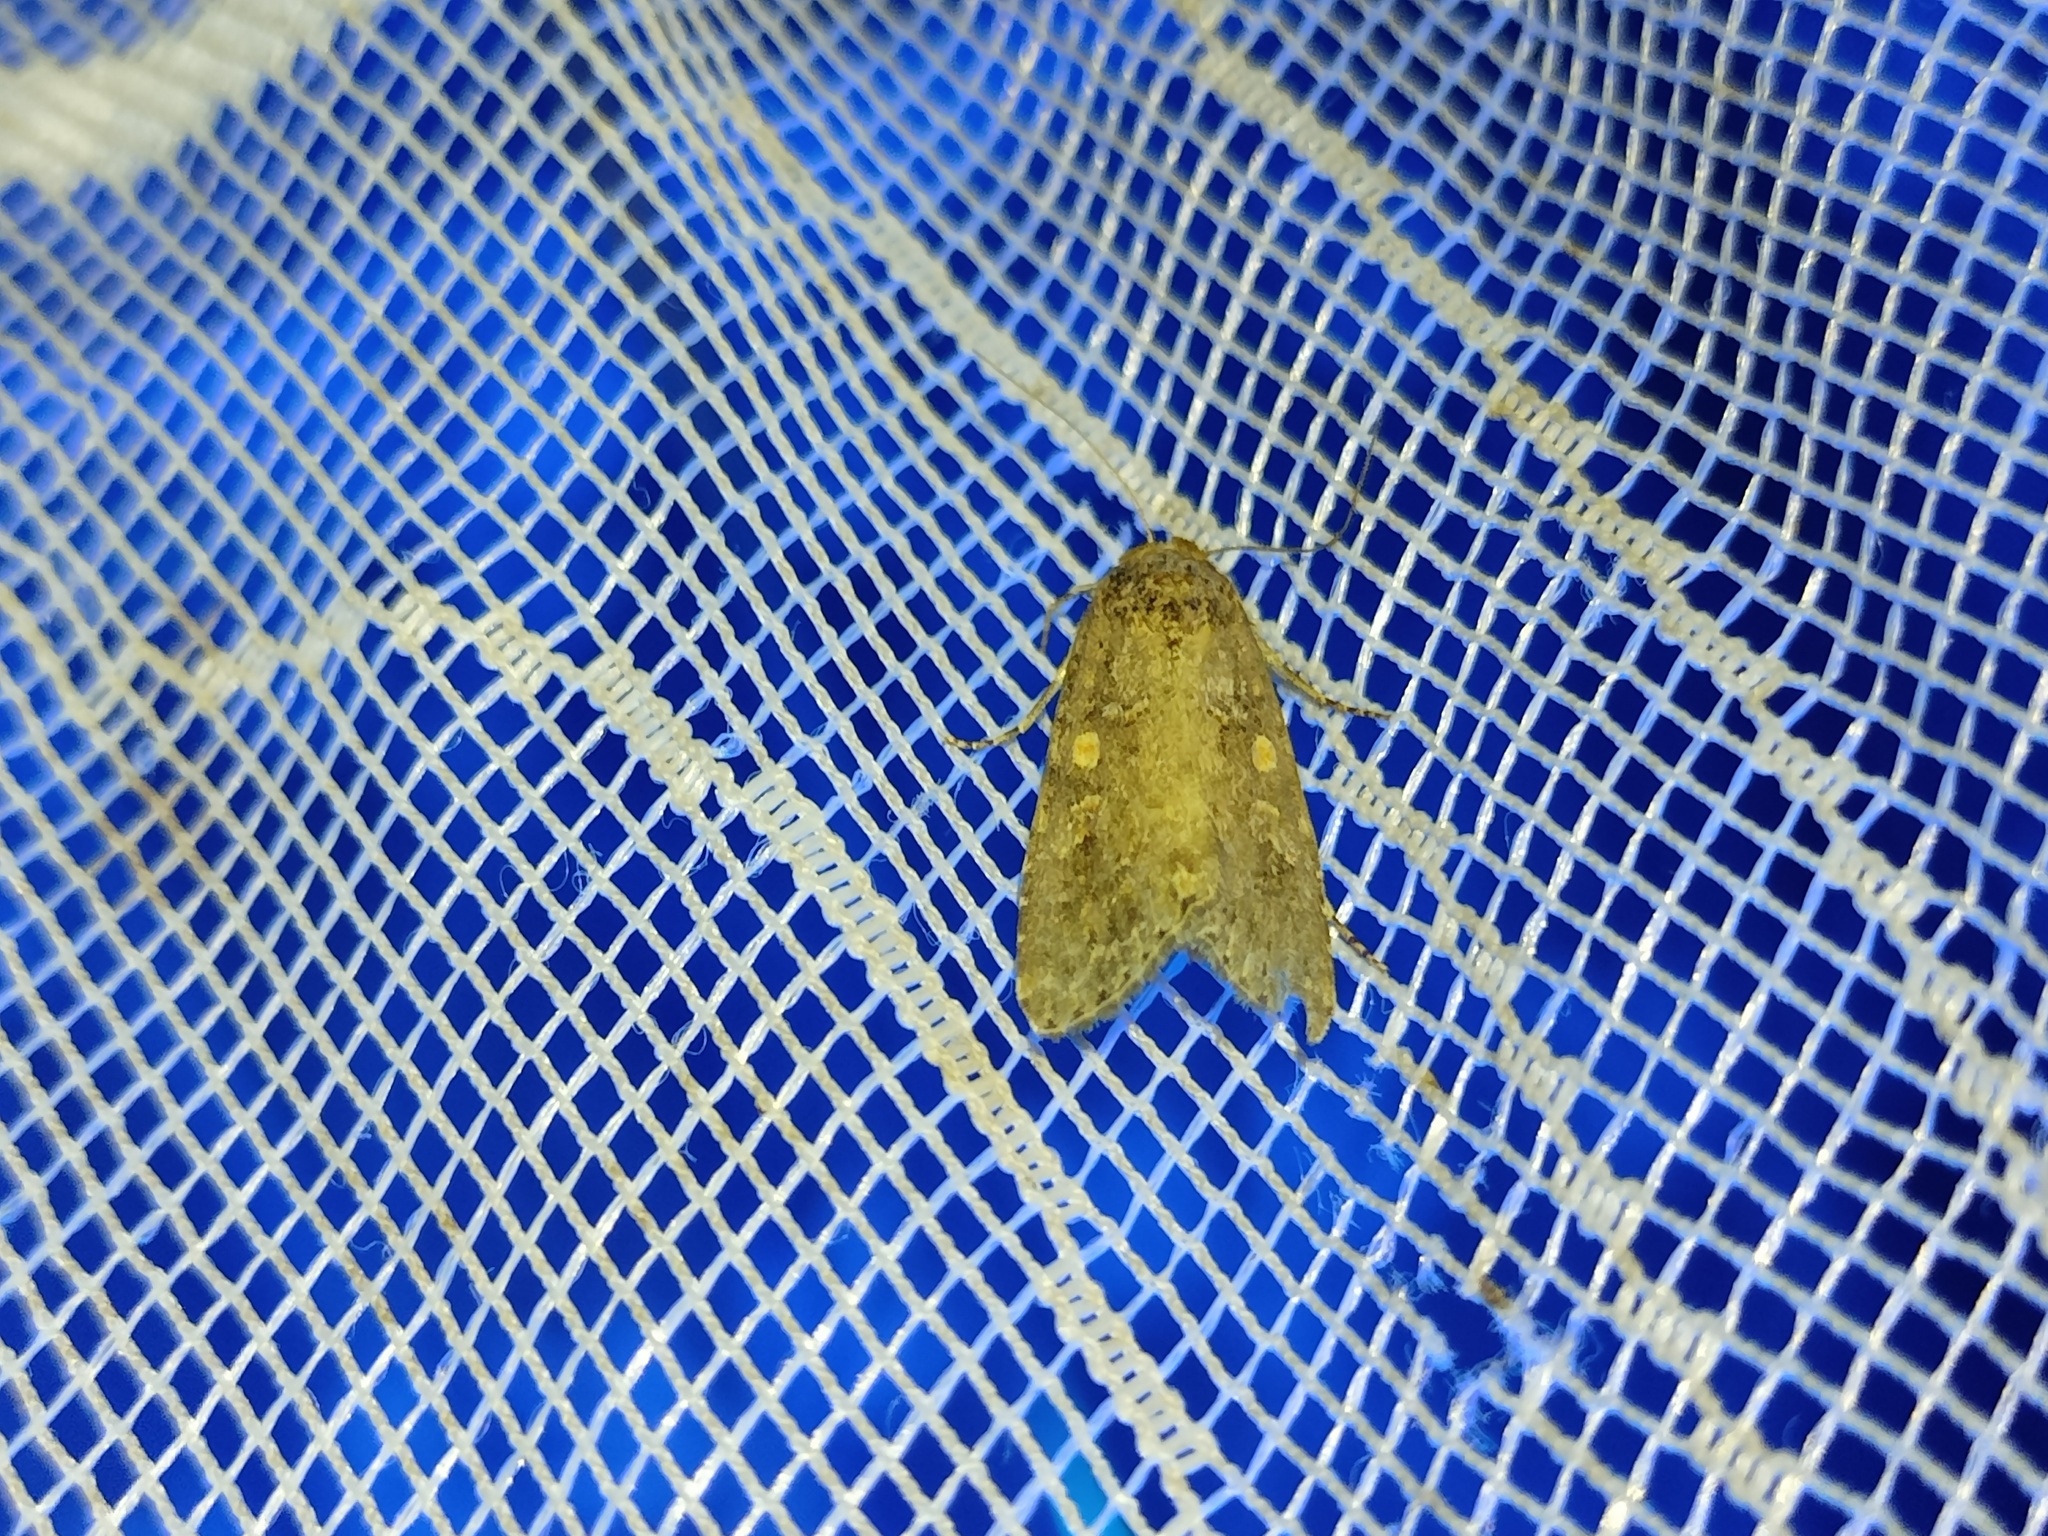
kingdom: Animalia
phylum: Arthropoda
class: Insecta
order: Lepidoptera
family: Noctuidae
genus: Spodoptera
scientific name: Spodoptera exigua
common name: Beet armyworm
